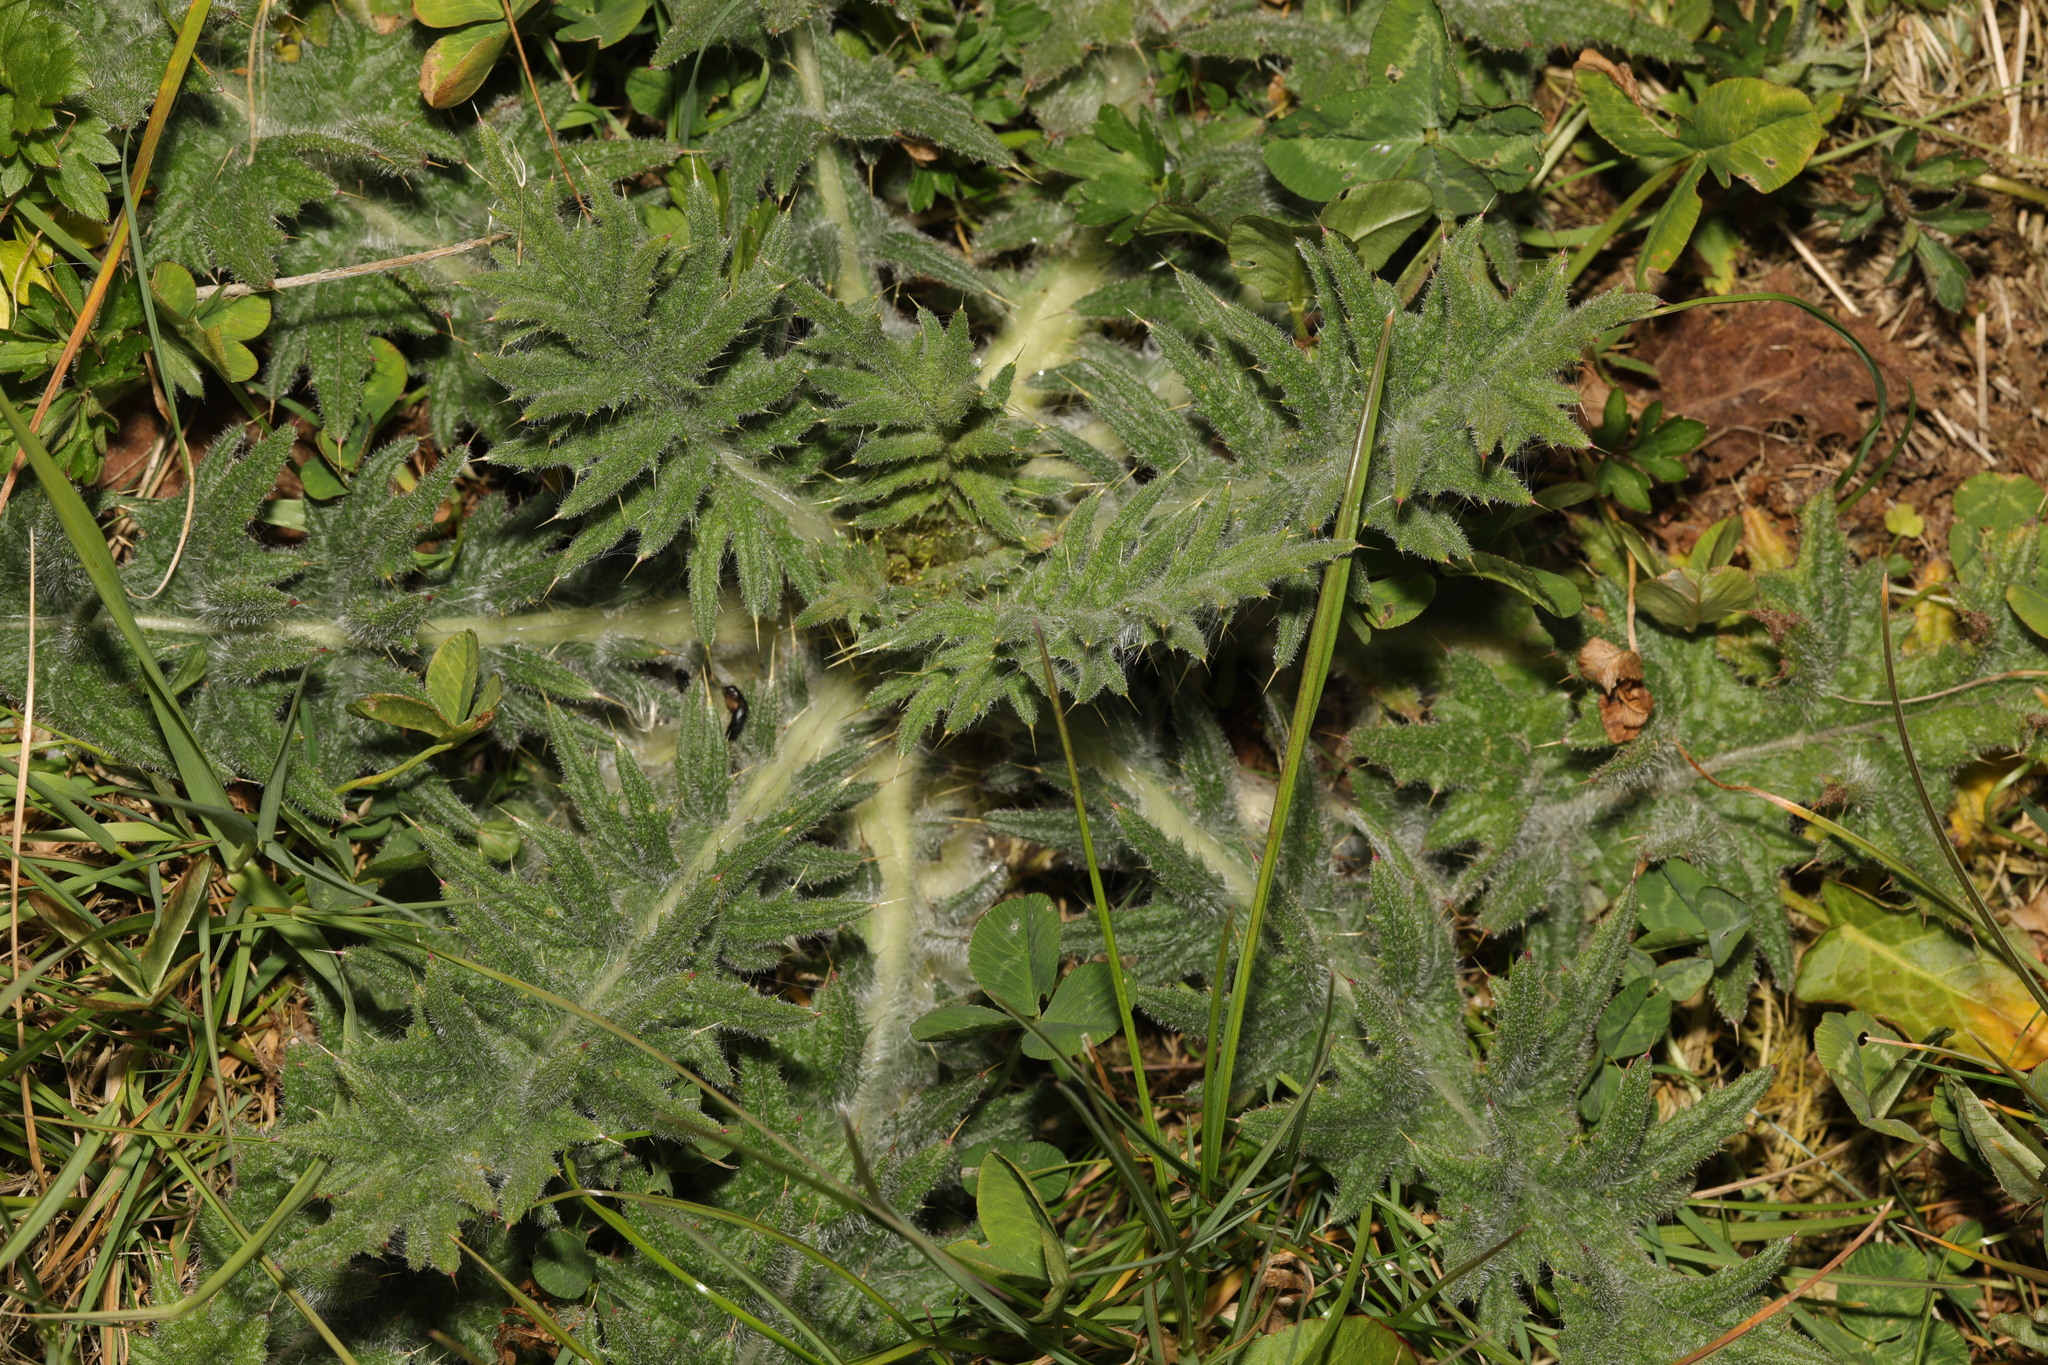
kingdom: Plantae
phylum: Tracheophyta
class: Magnoliopsida
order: Asterales
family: Asteraceae
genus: Cirsium
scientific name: Cirsium vulgare
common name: Bull thistle
